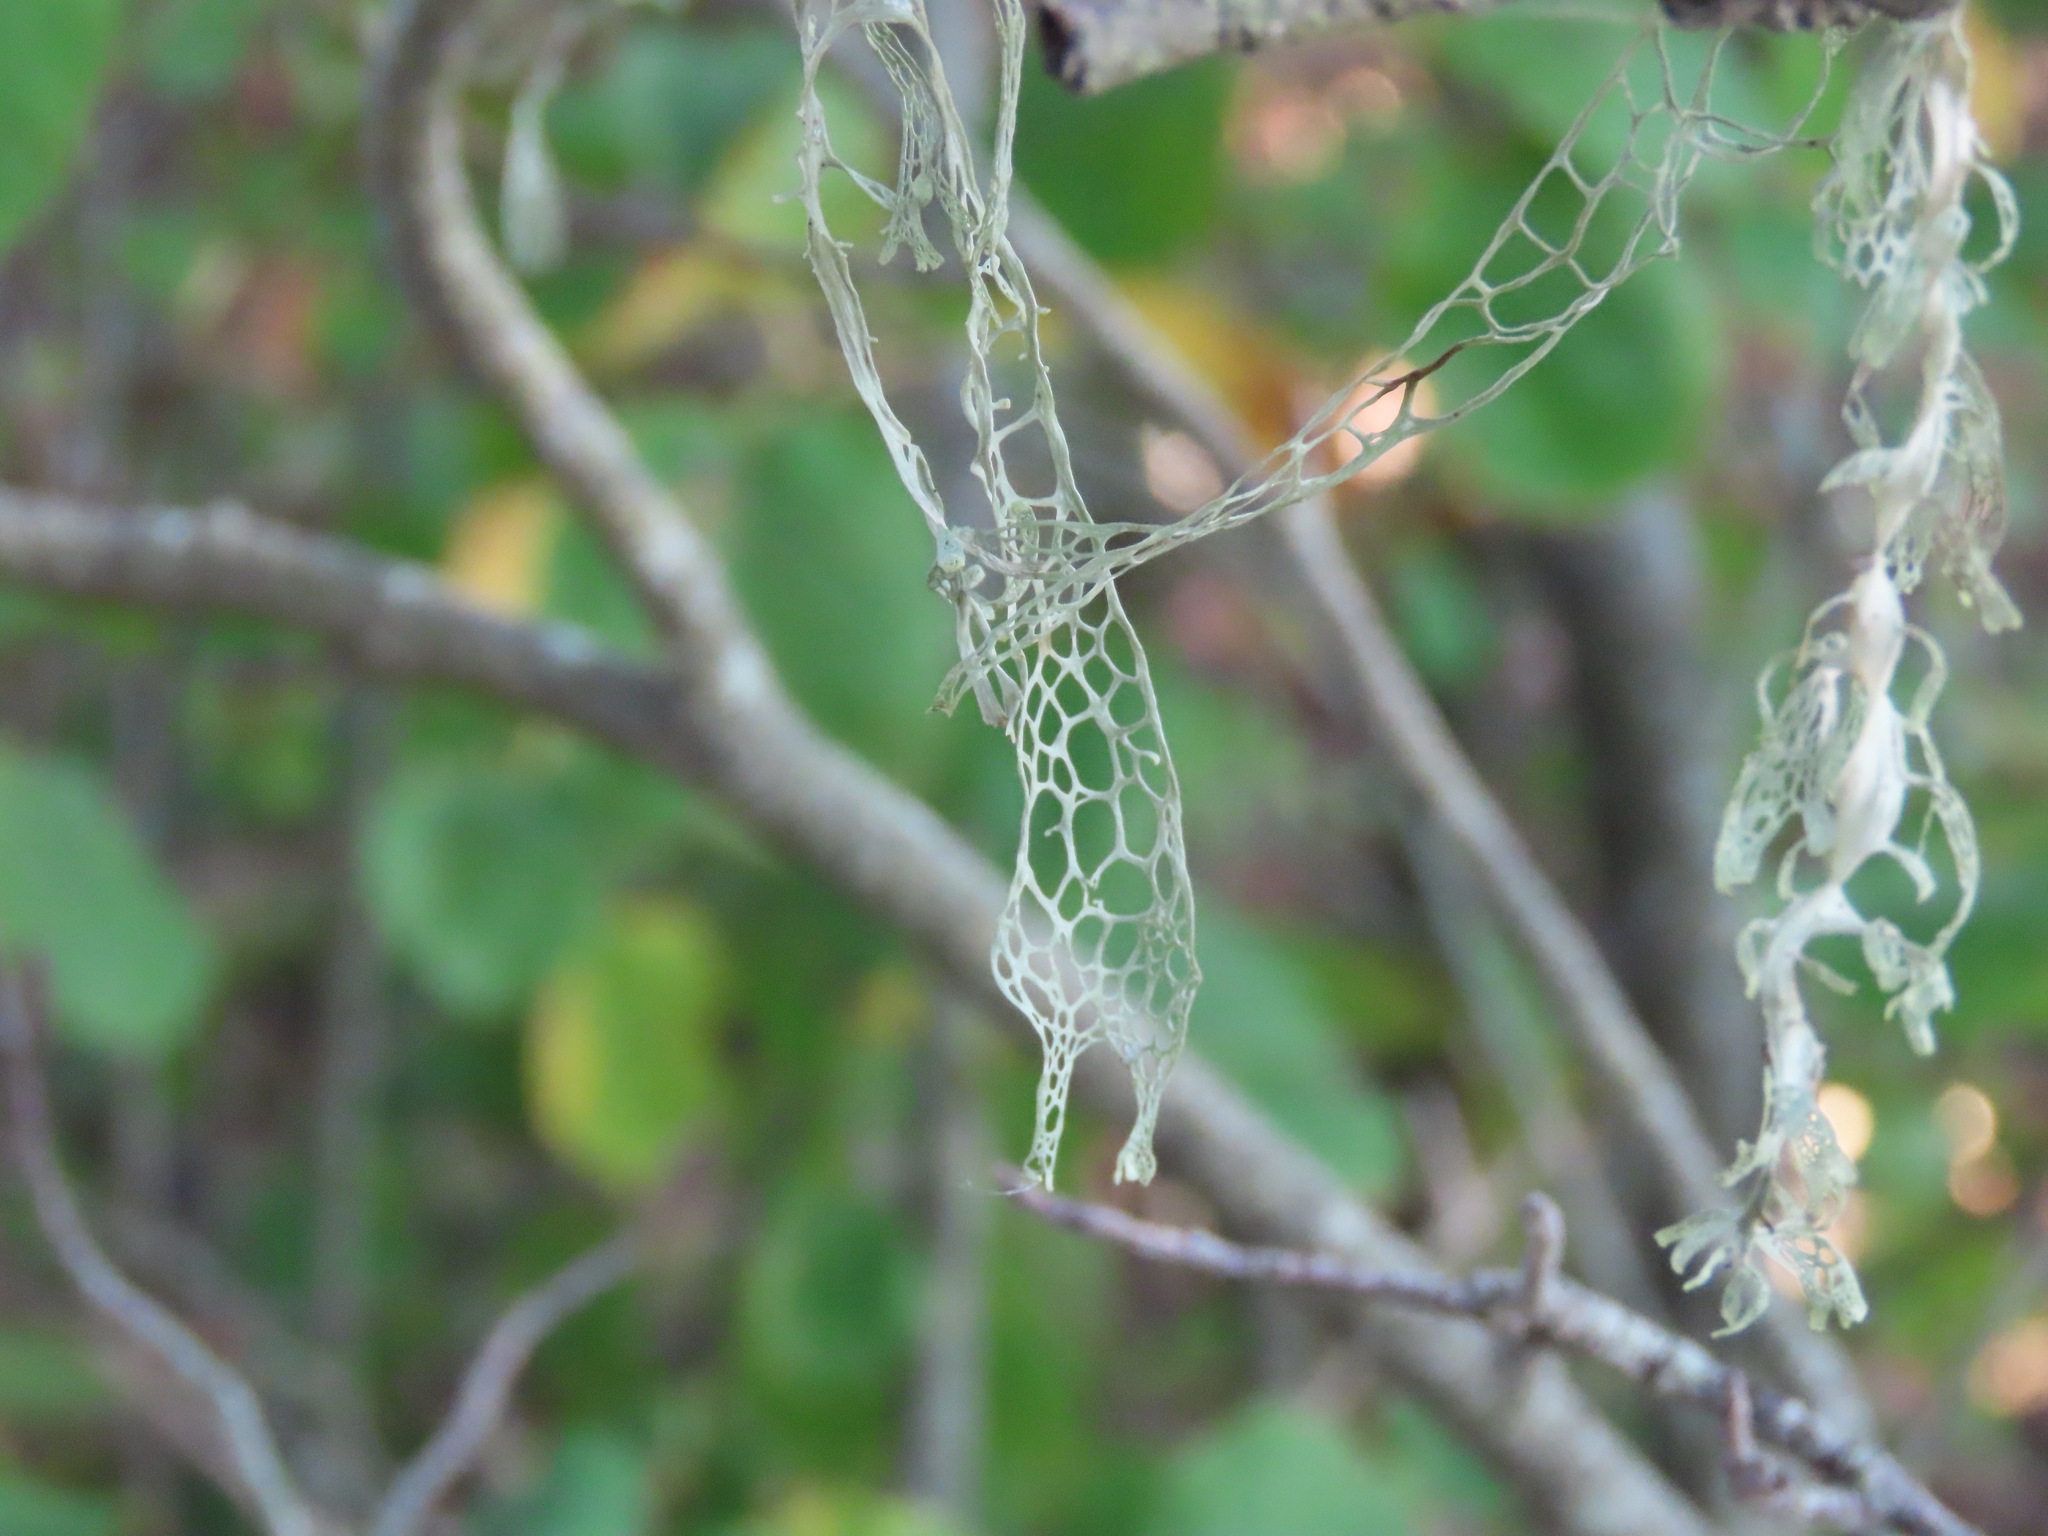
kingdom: Fungi
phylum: Ascomycota
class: Lecanoromycetes
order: Lecanorales
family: Ramalinaceae
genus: Ramalina
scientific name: Ramalina menziesii
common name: Lace lichen
